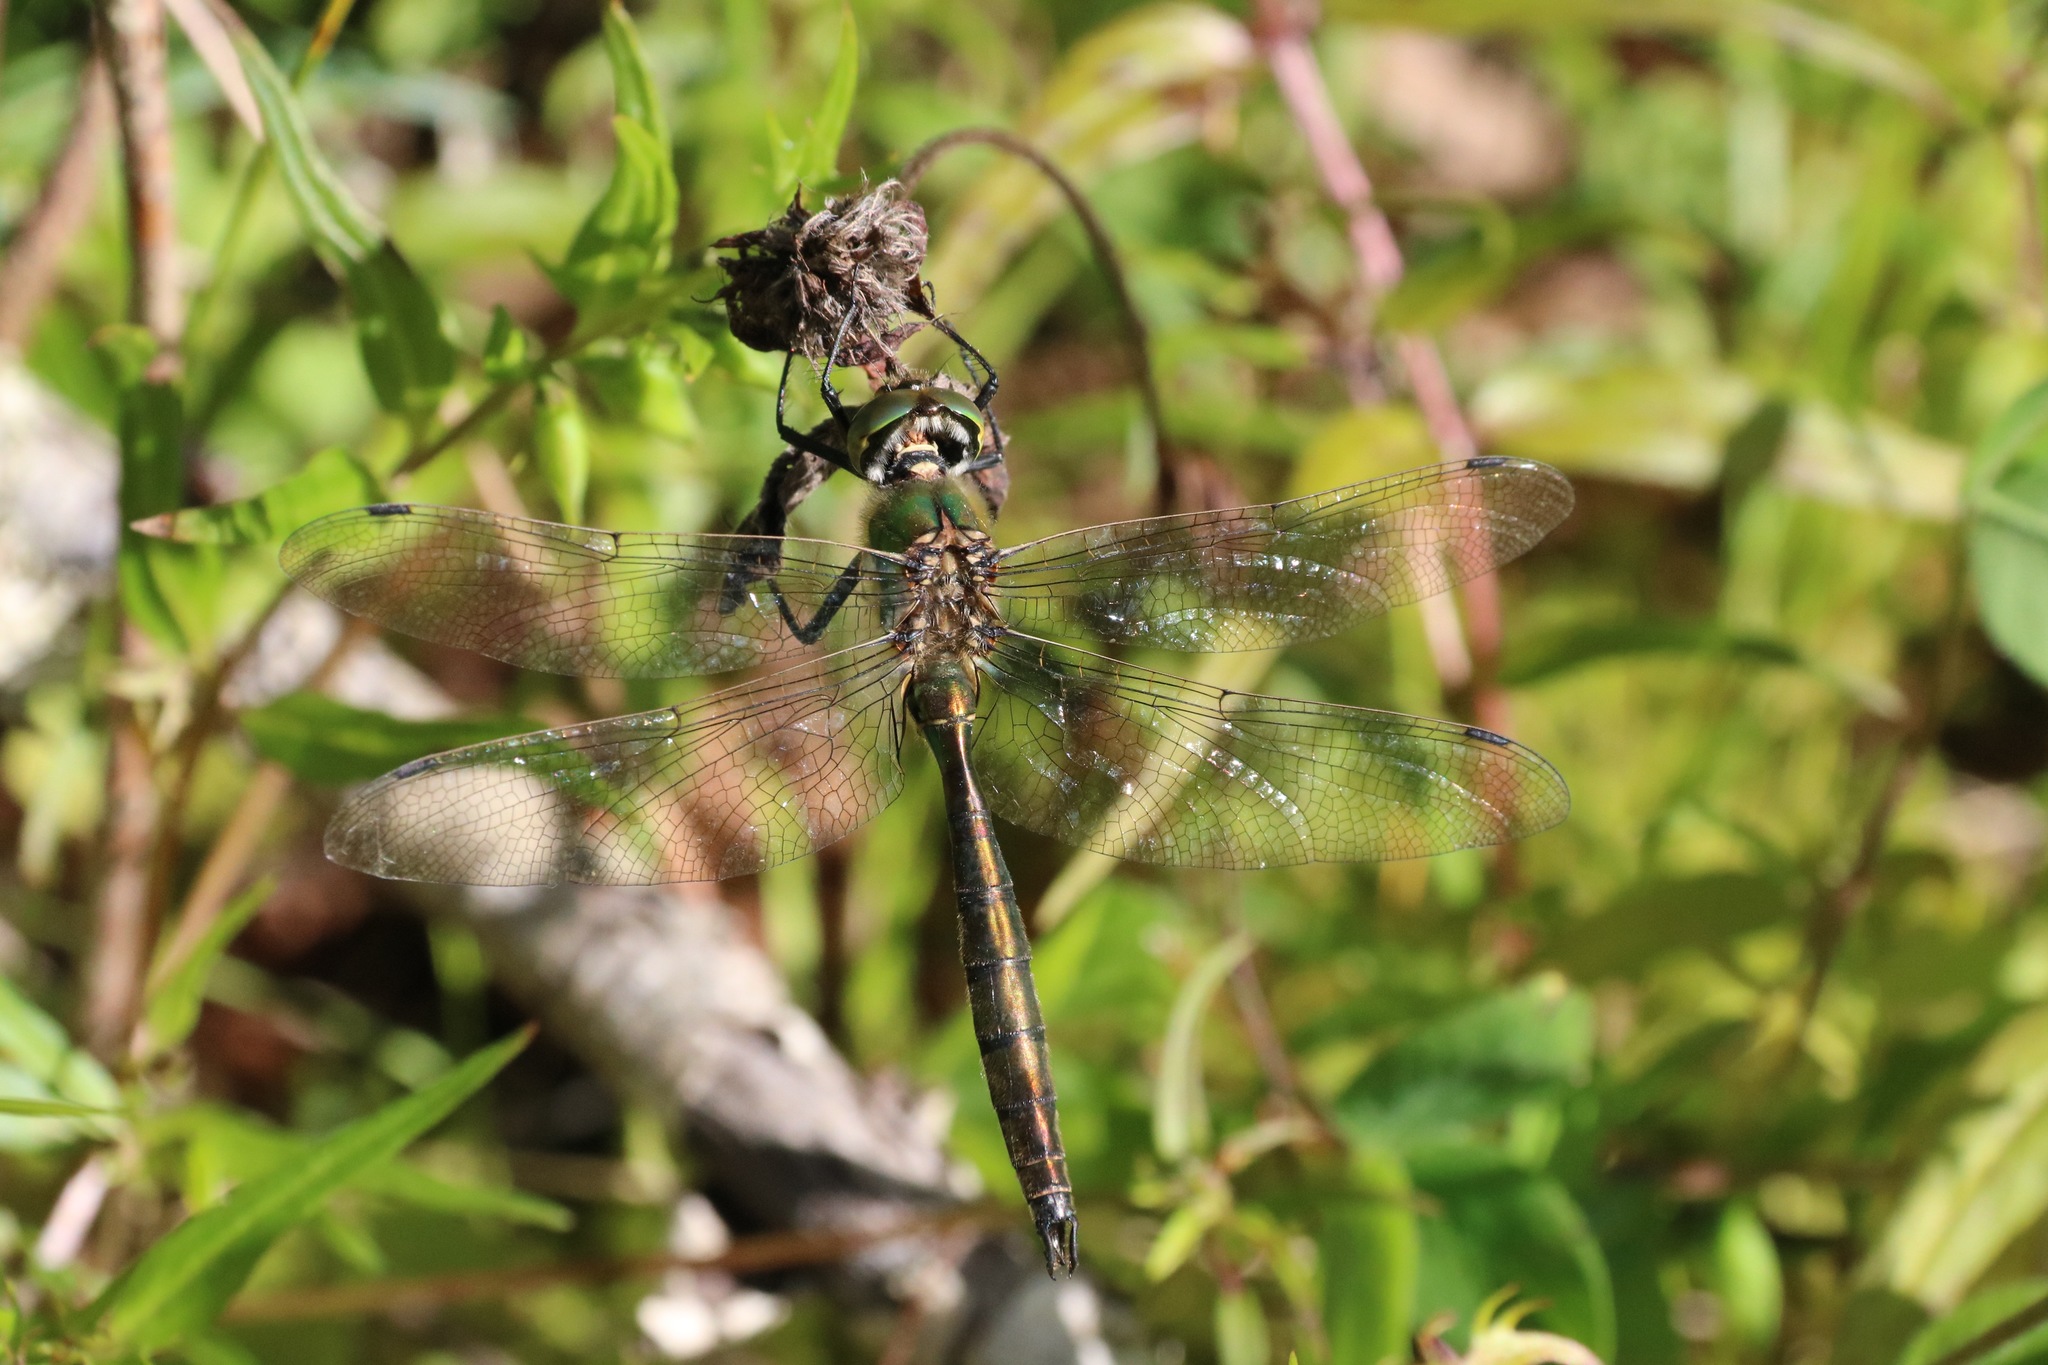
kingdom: Animalia
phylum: Arthropoda
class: Insecta
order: Odonata
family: Corduliidae
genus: Somatochlora
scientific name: Somatochlora metallica
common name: Brilliant emerald
